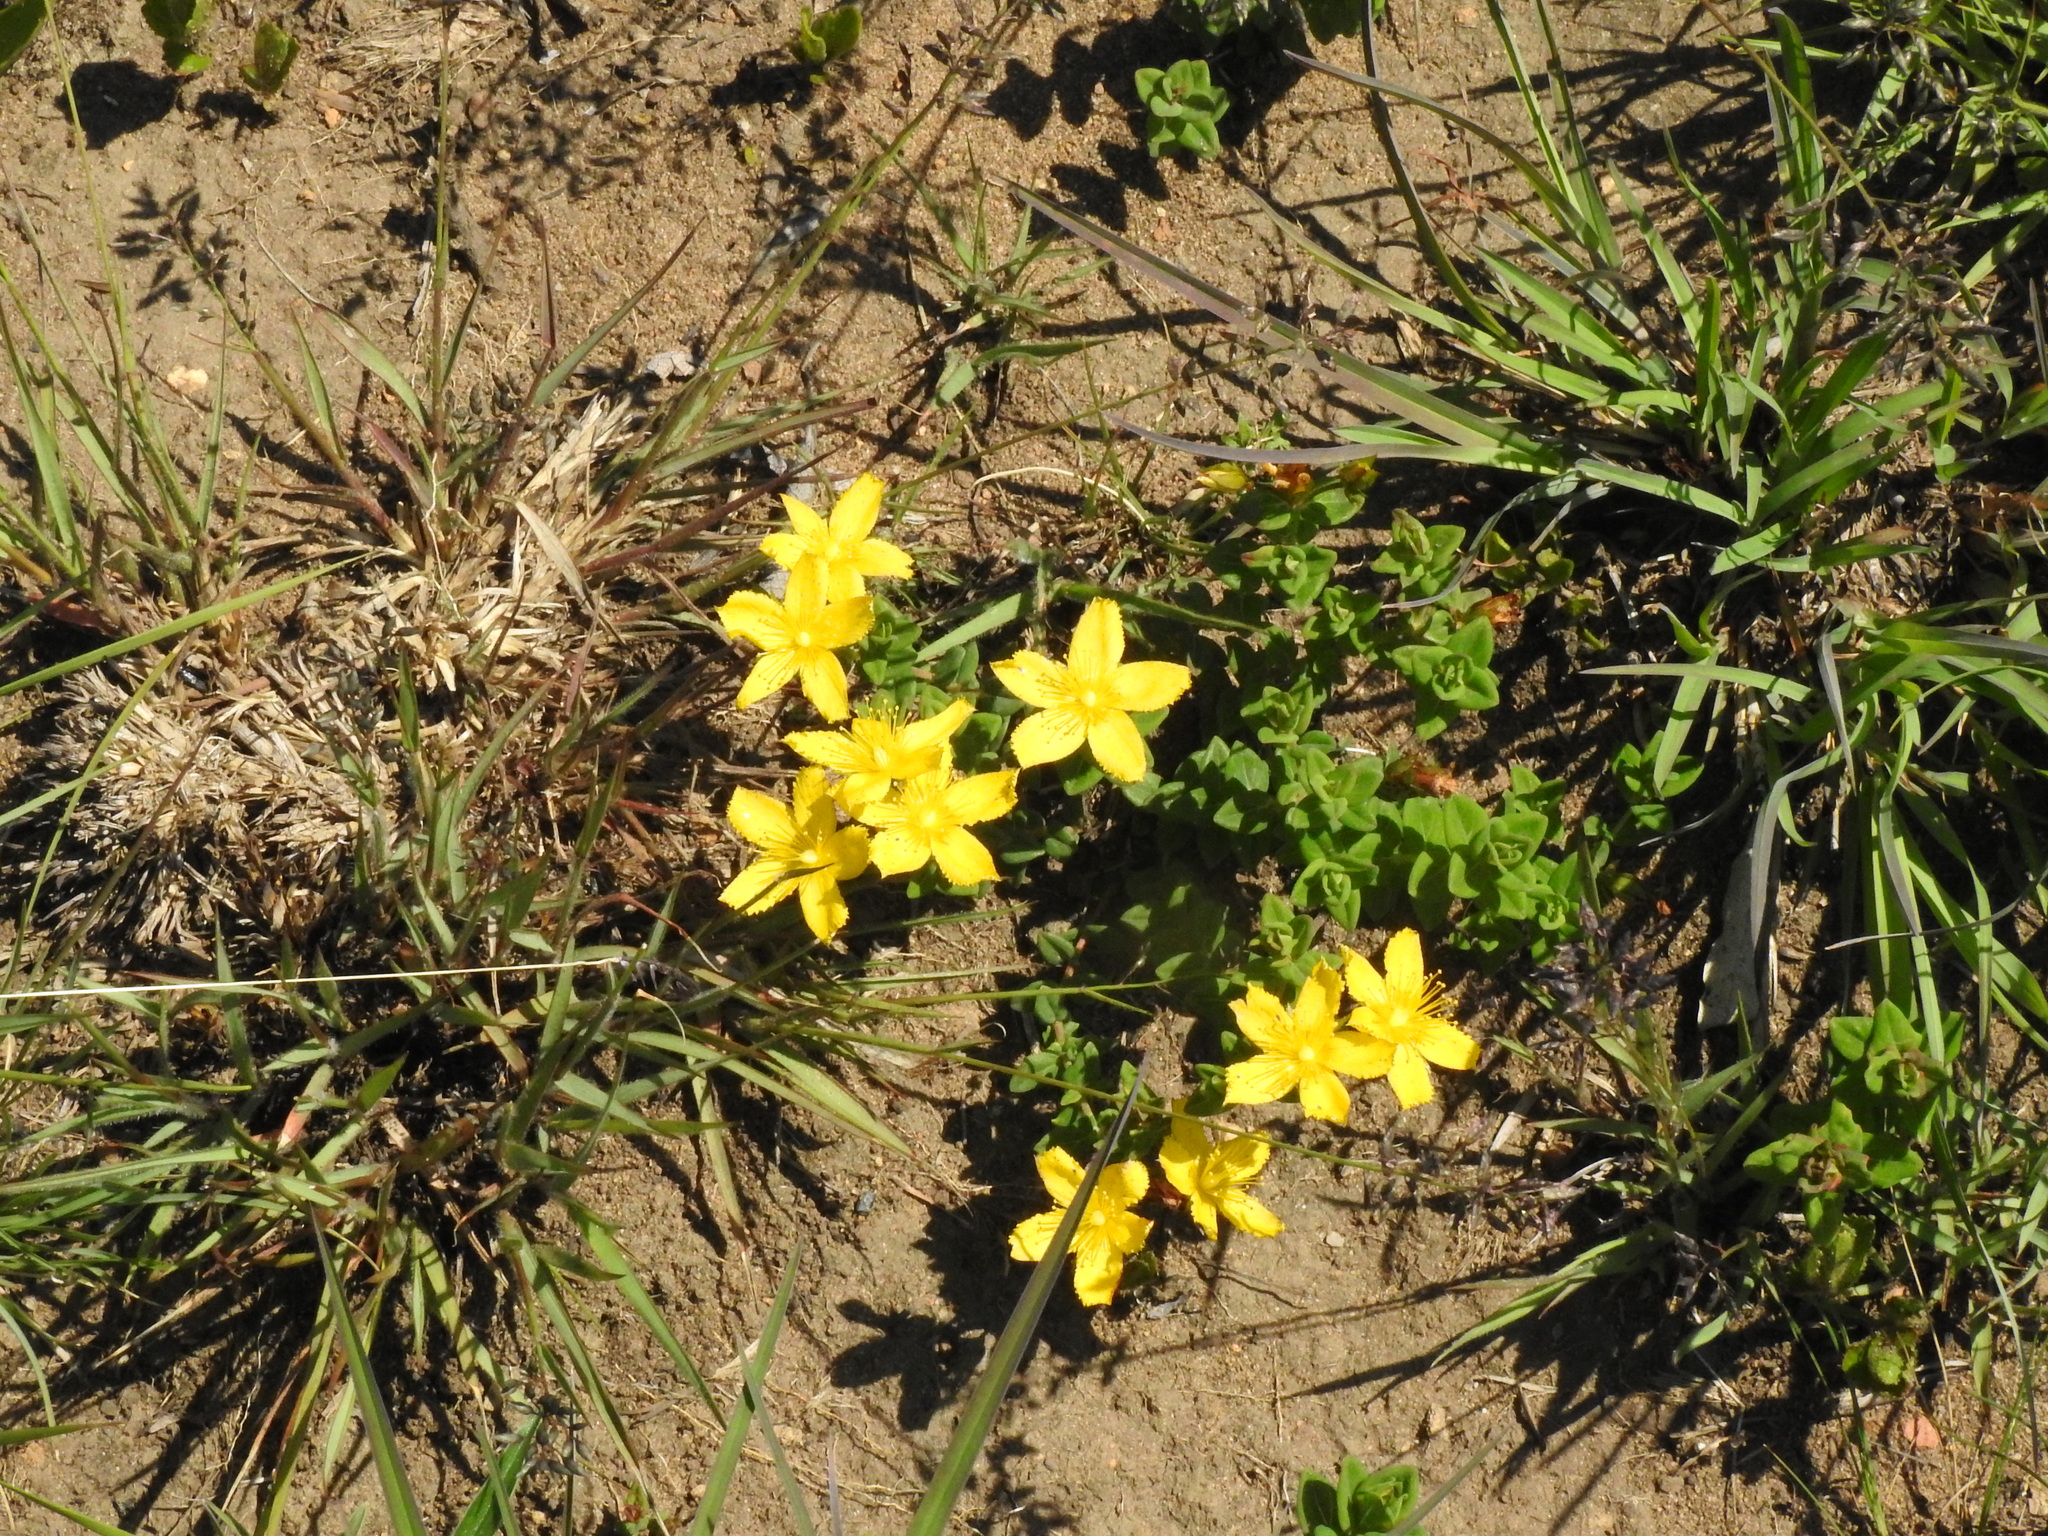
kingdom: Plantae
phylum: Tracheophyta
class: Magnoliopsida
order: Malpighiales
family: Hypericaceae
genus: Hypericum
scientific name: Hypericum aethiopicum
